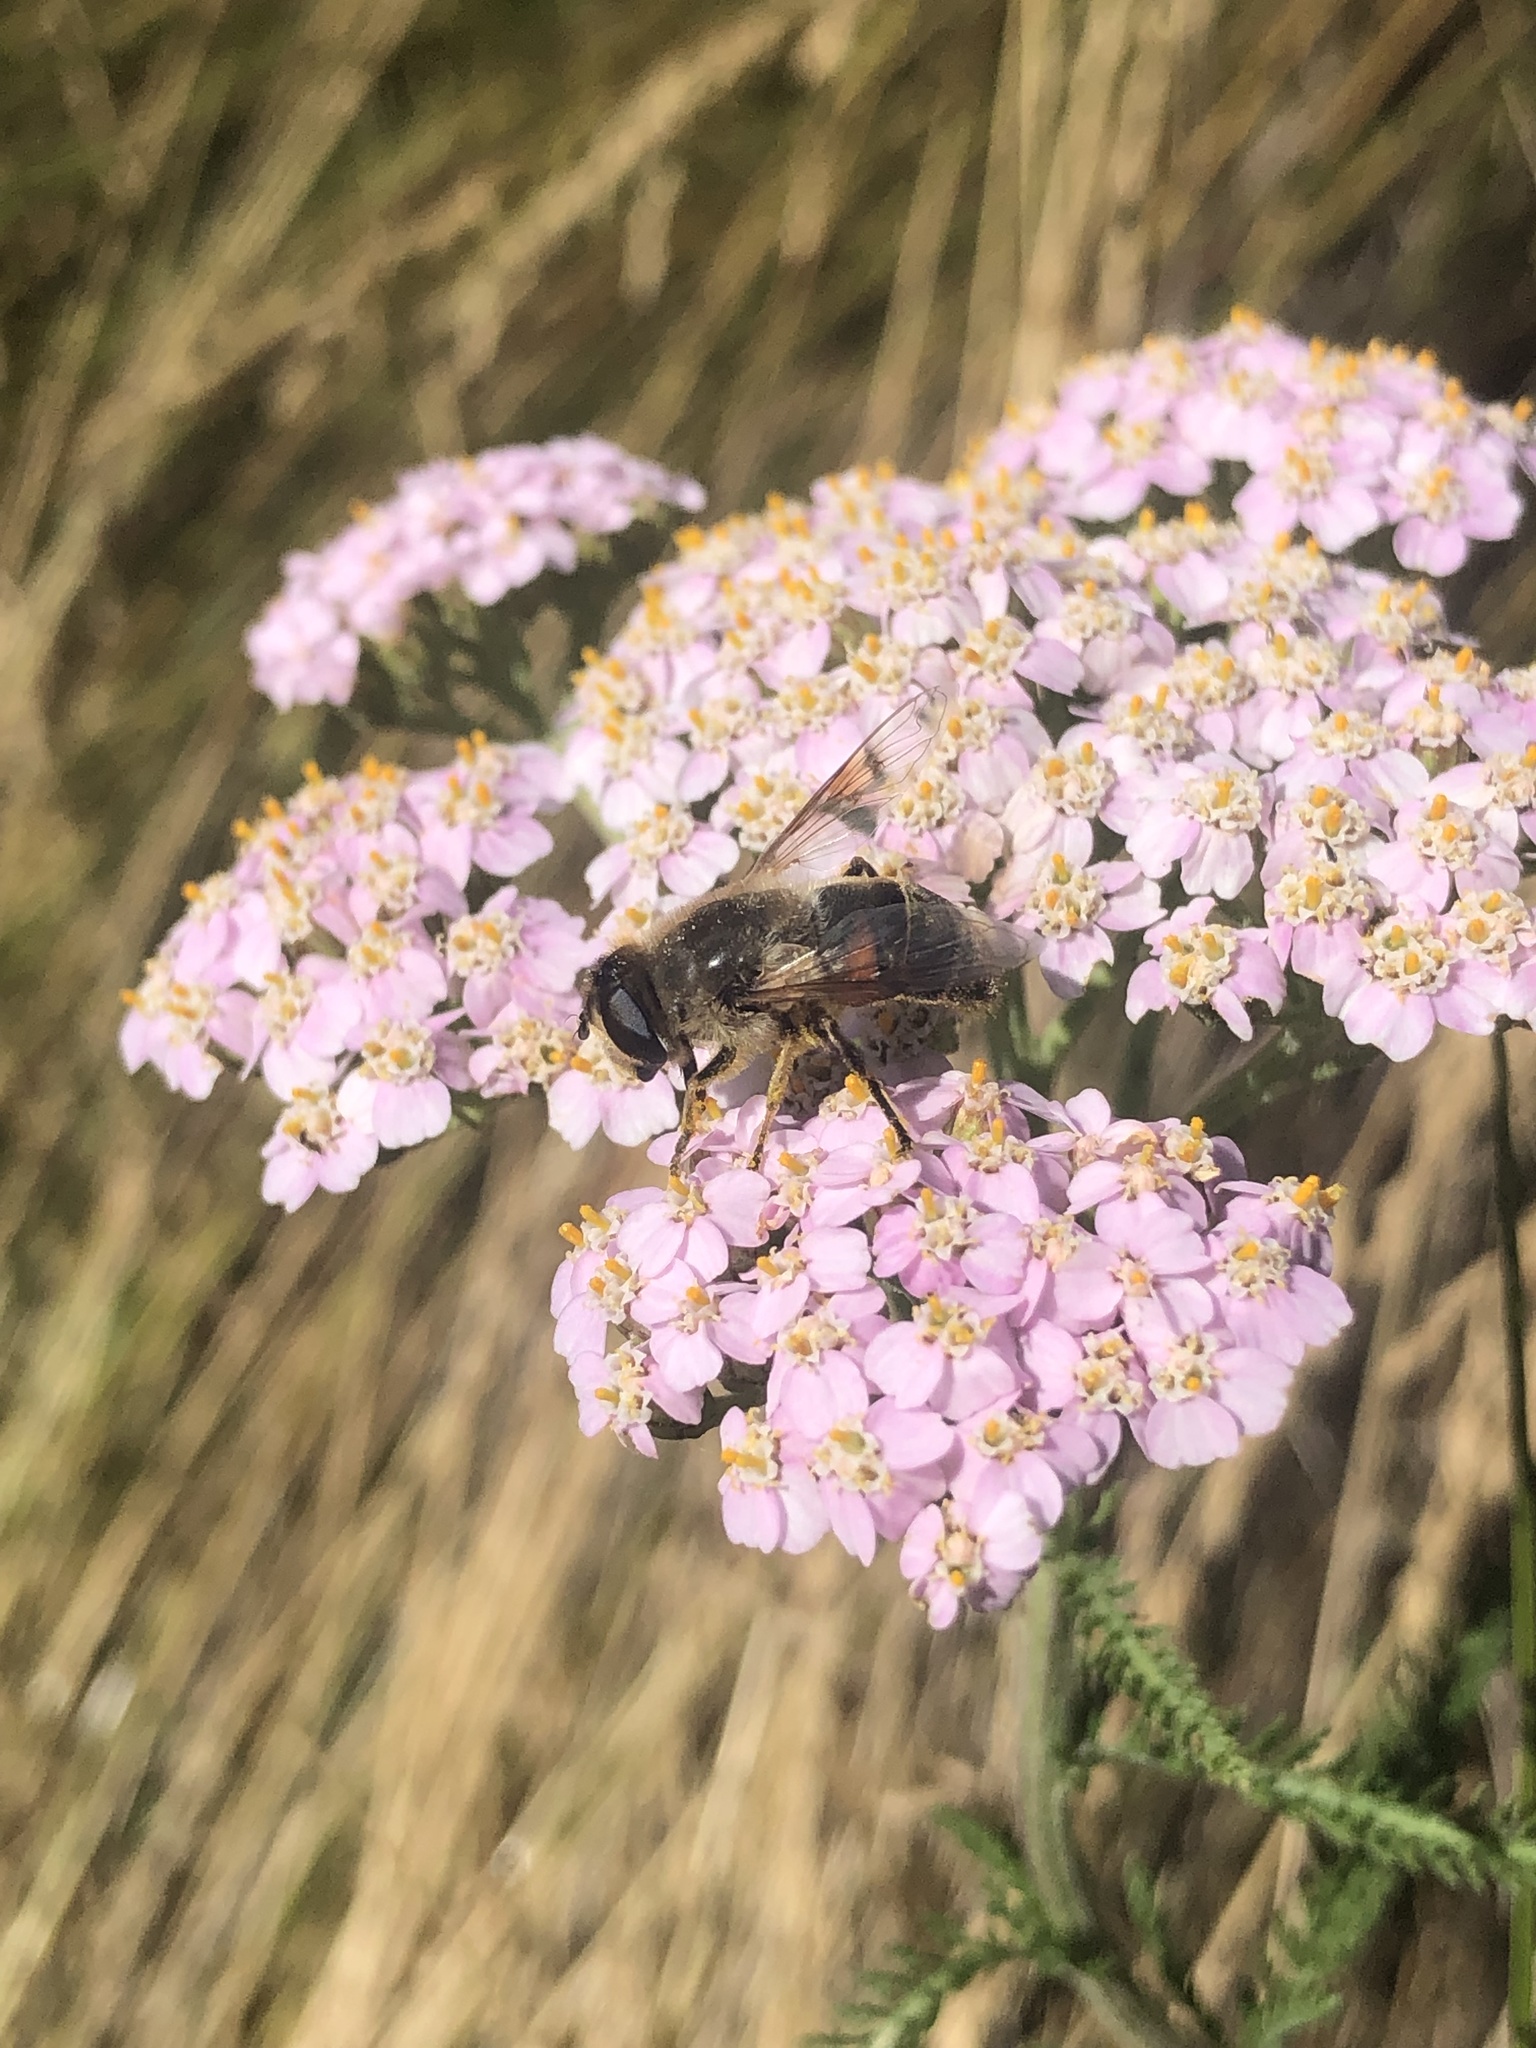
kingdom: Animalia
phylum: Arthropoda
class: Insecta
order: Diptera
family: Syrphidae
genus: Eristalis
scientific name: Eristalis tenax
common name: Drone fly
